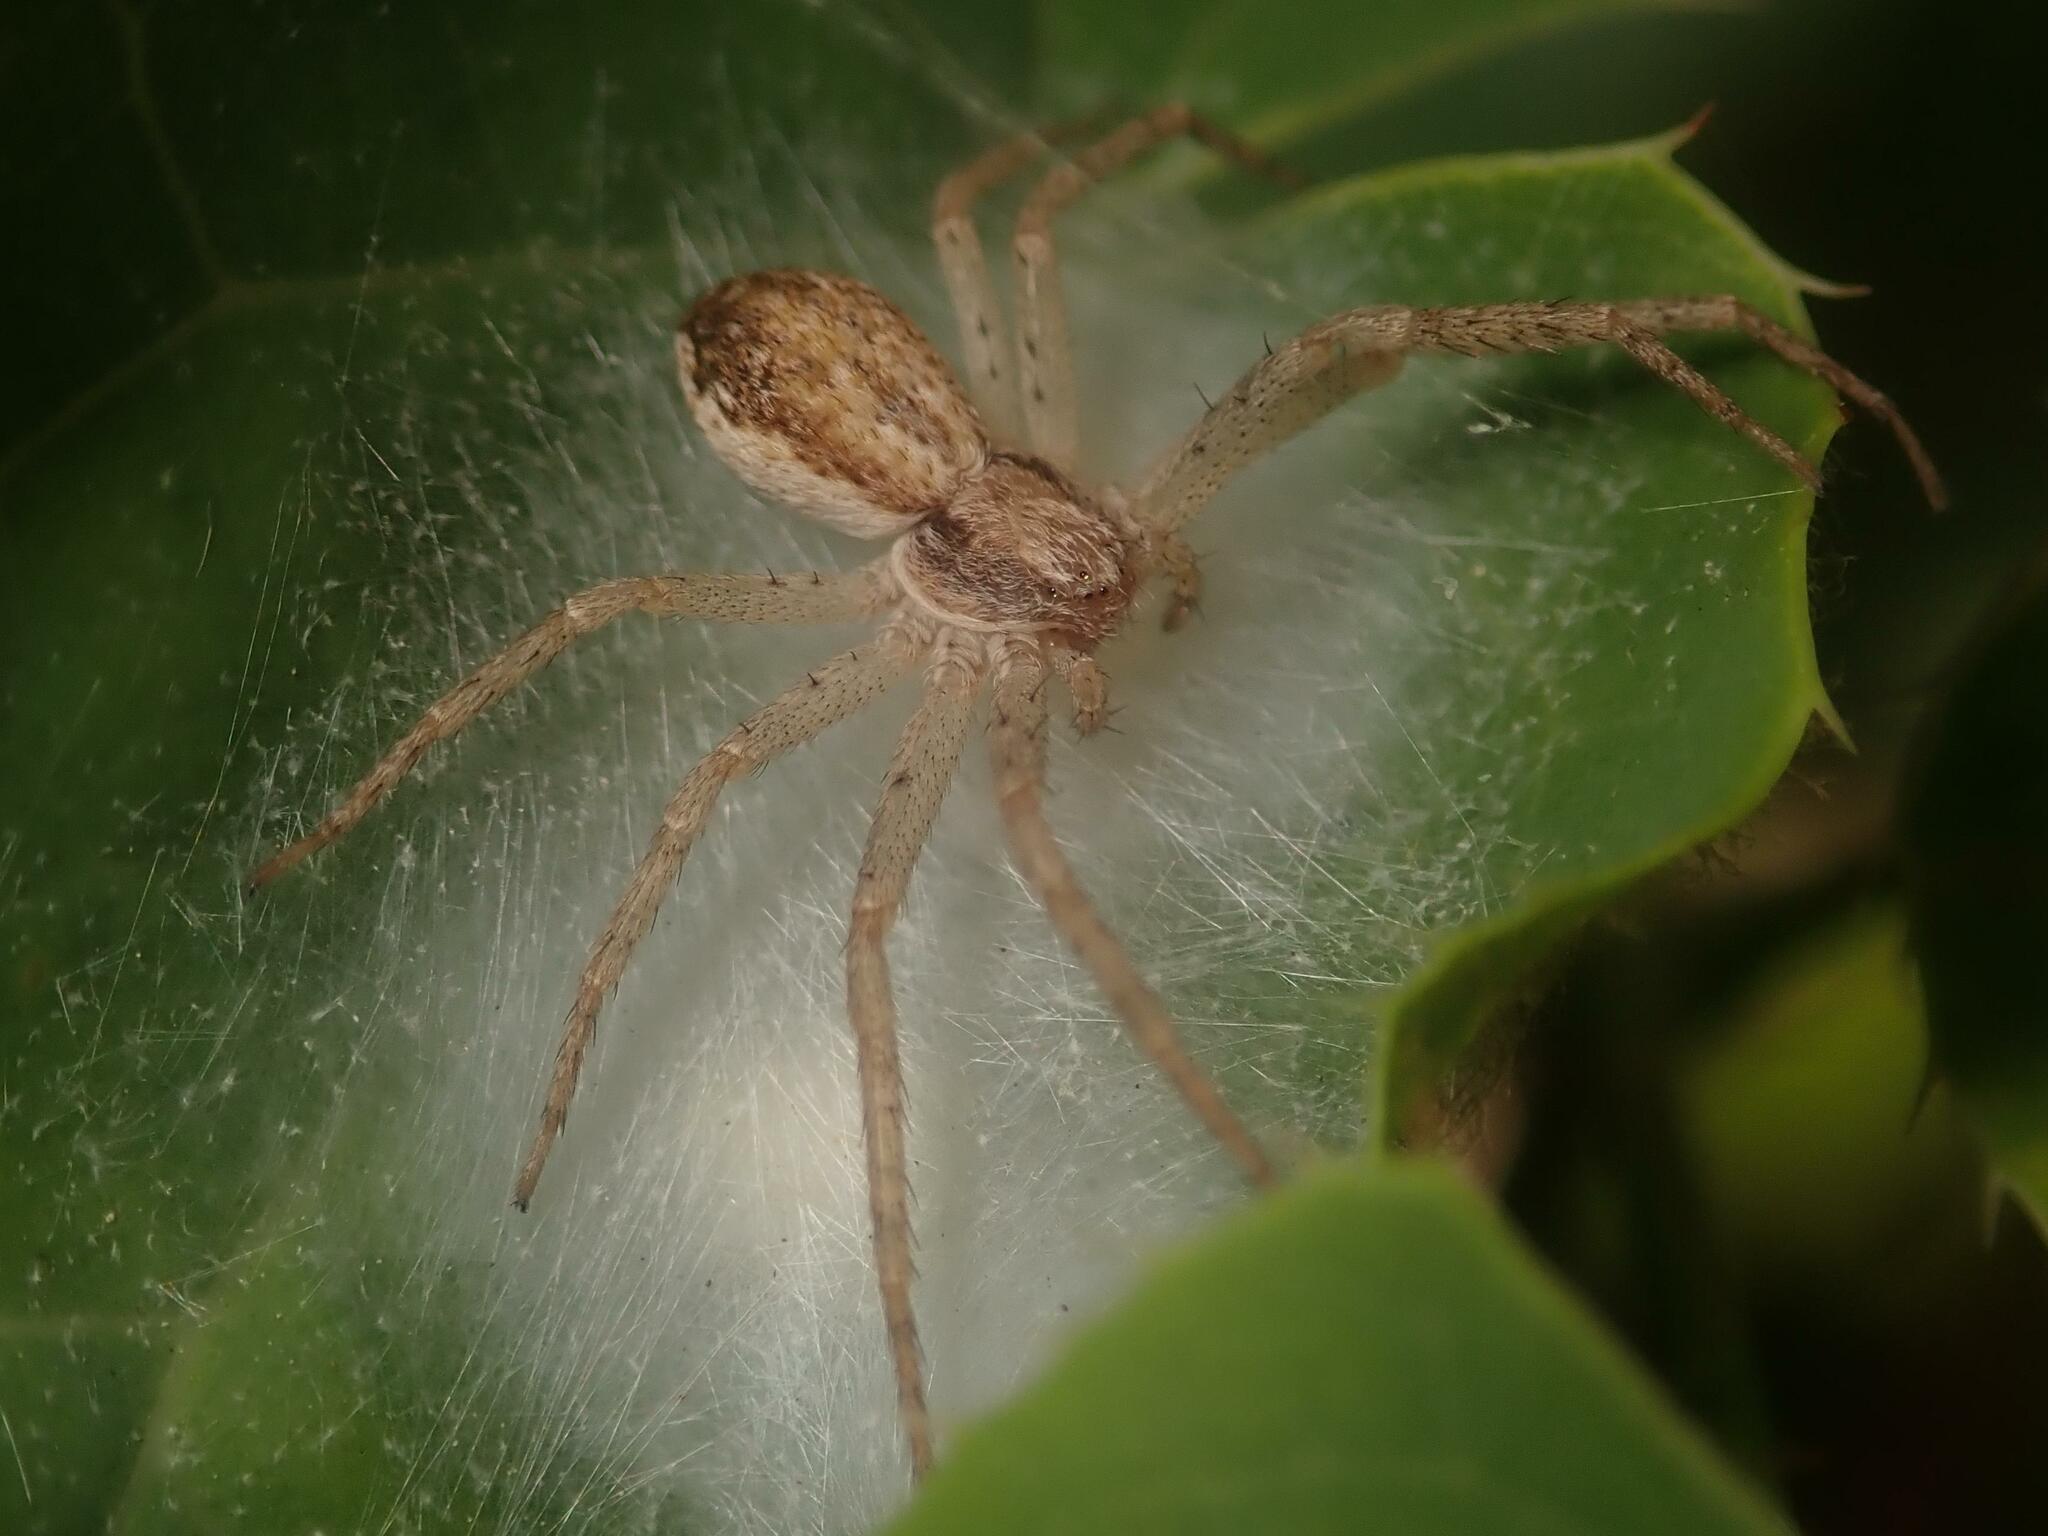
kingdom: Animalia
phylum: Arthropoda
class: Arachnida
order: Araneae
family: Philodromidae
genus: Philodromus
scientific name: Philodromus dispar
